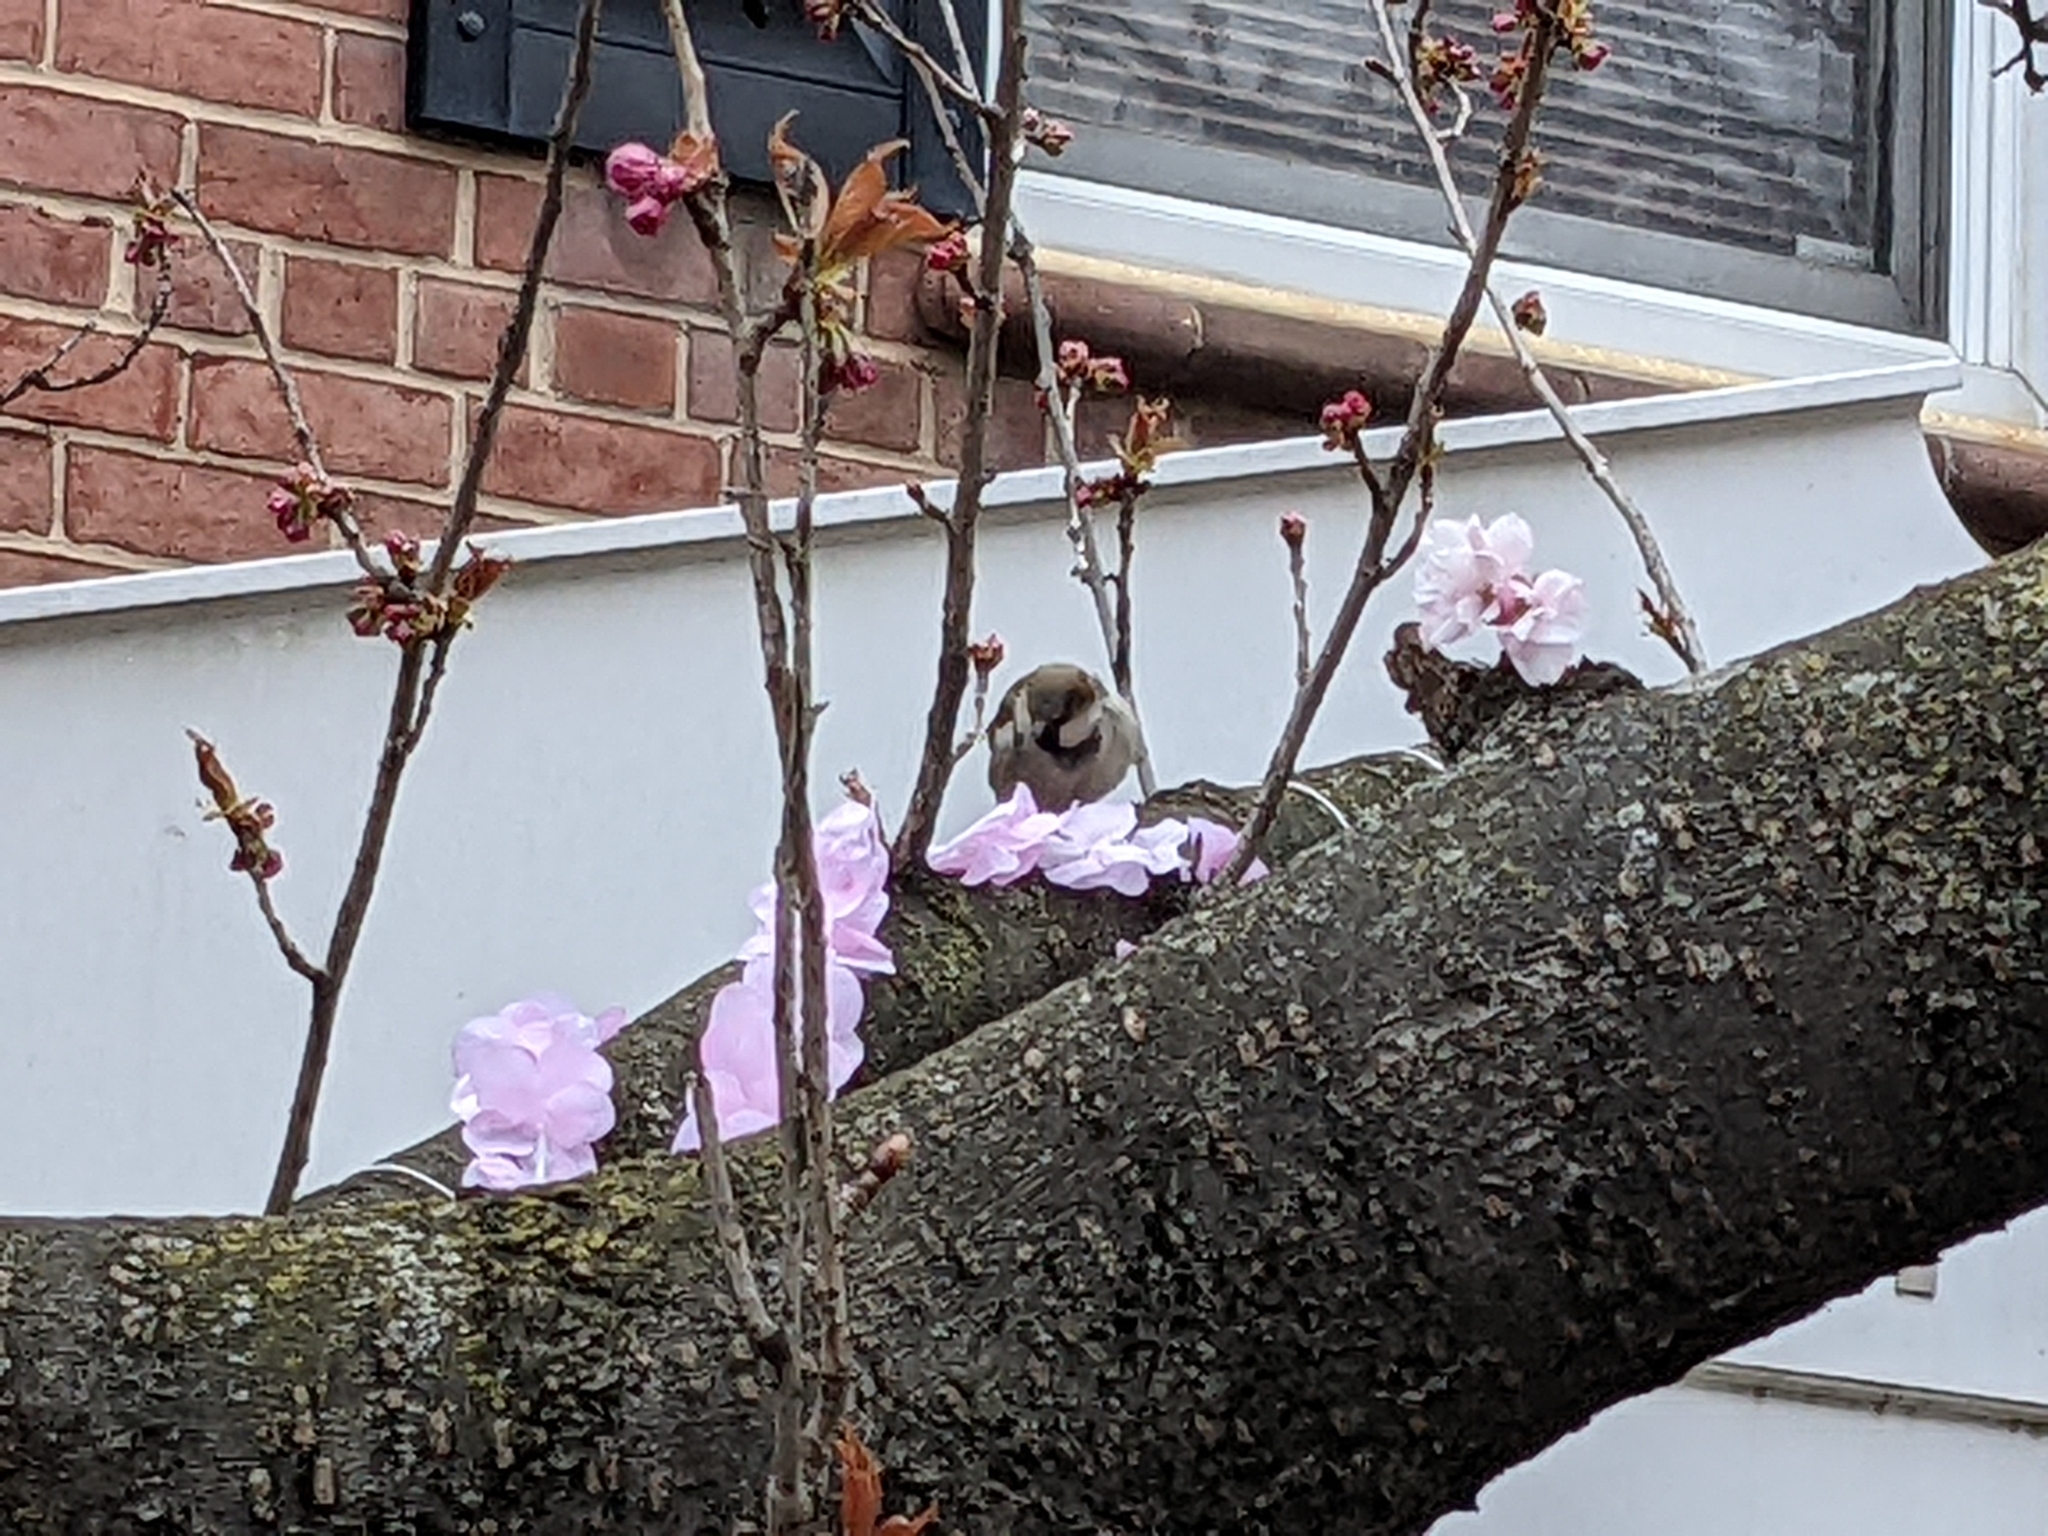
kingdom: Animalia
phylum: Chordata
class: Aves
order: Passeriformes
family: Passeridae
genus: Passer
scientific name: Passer domesticus
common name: House sparrow
